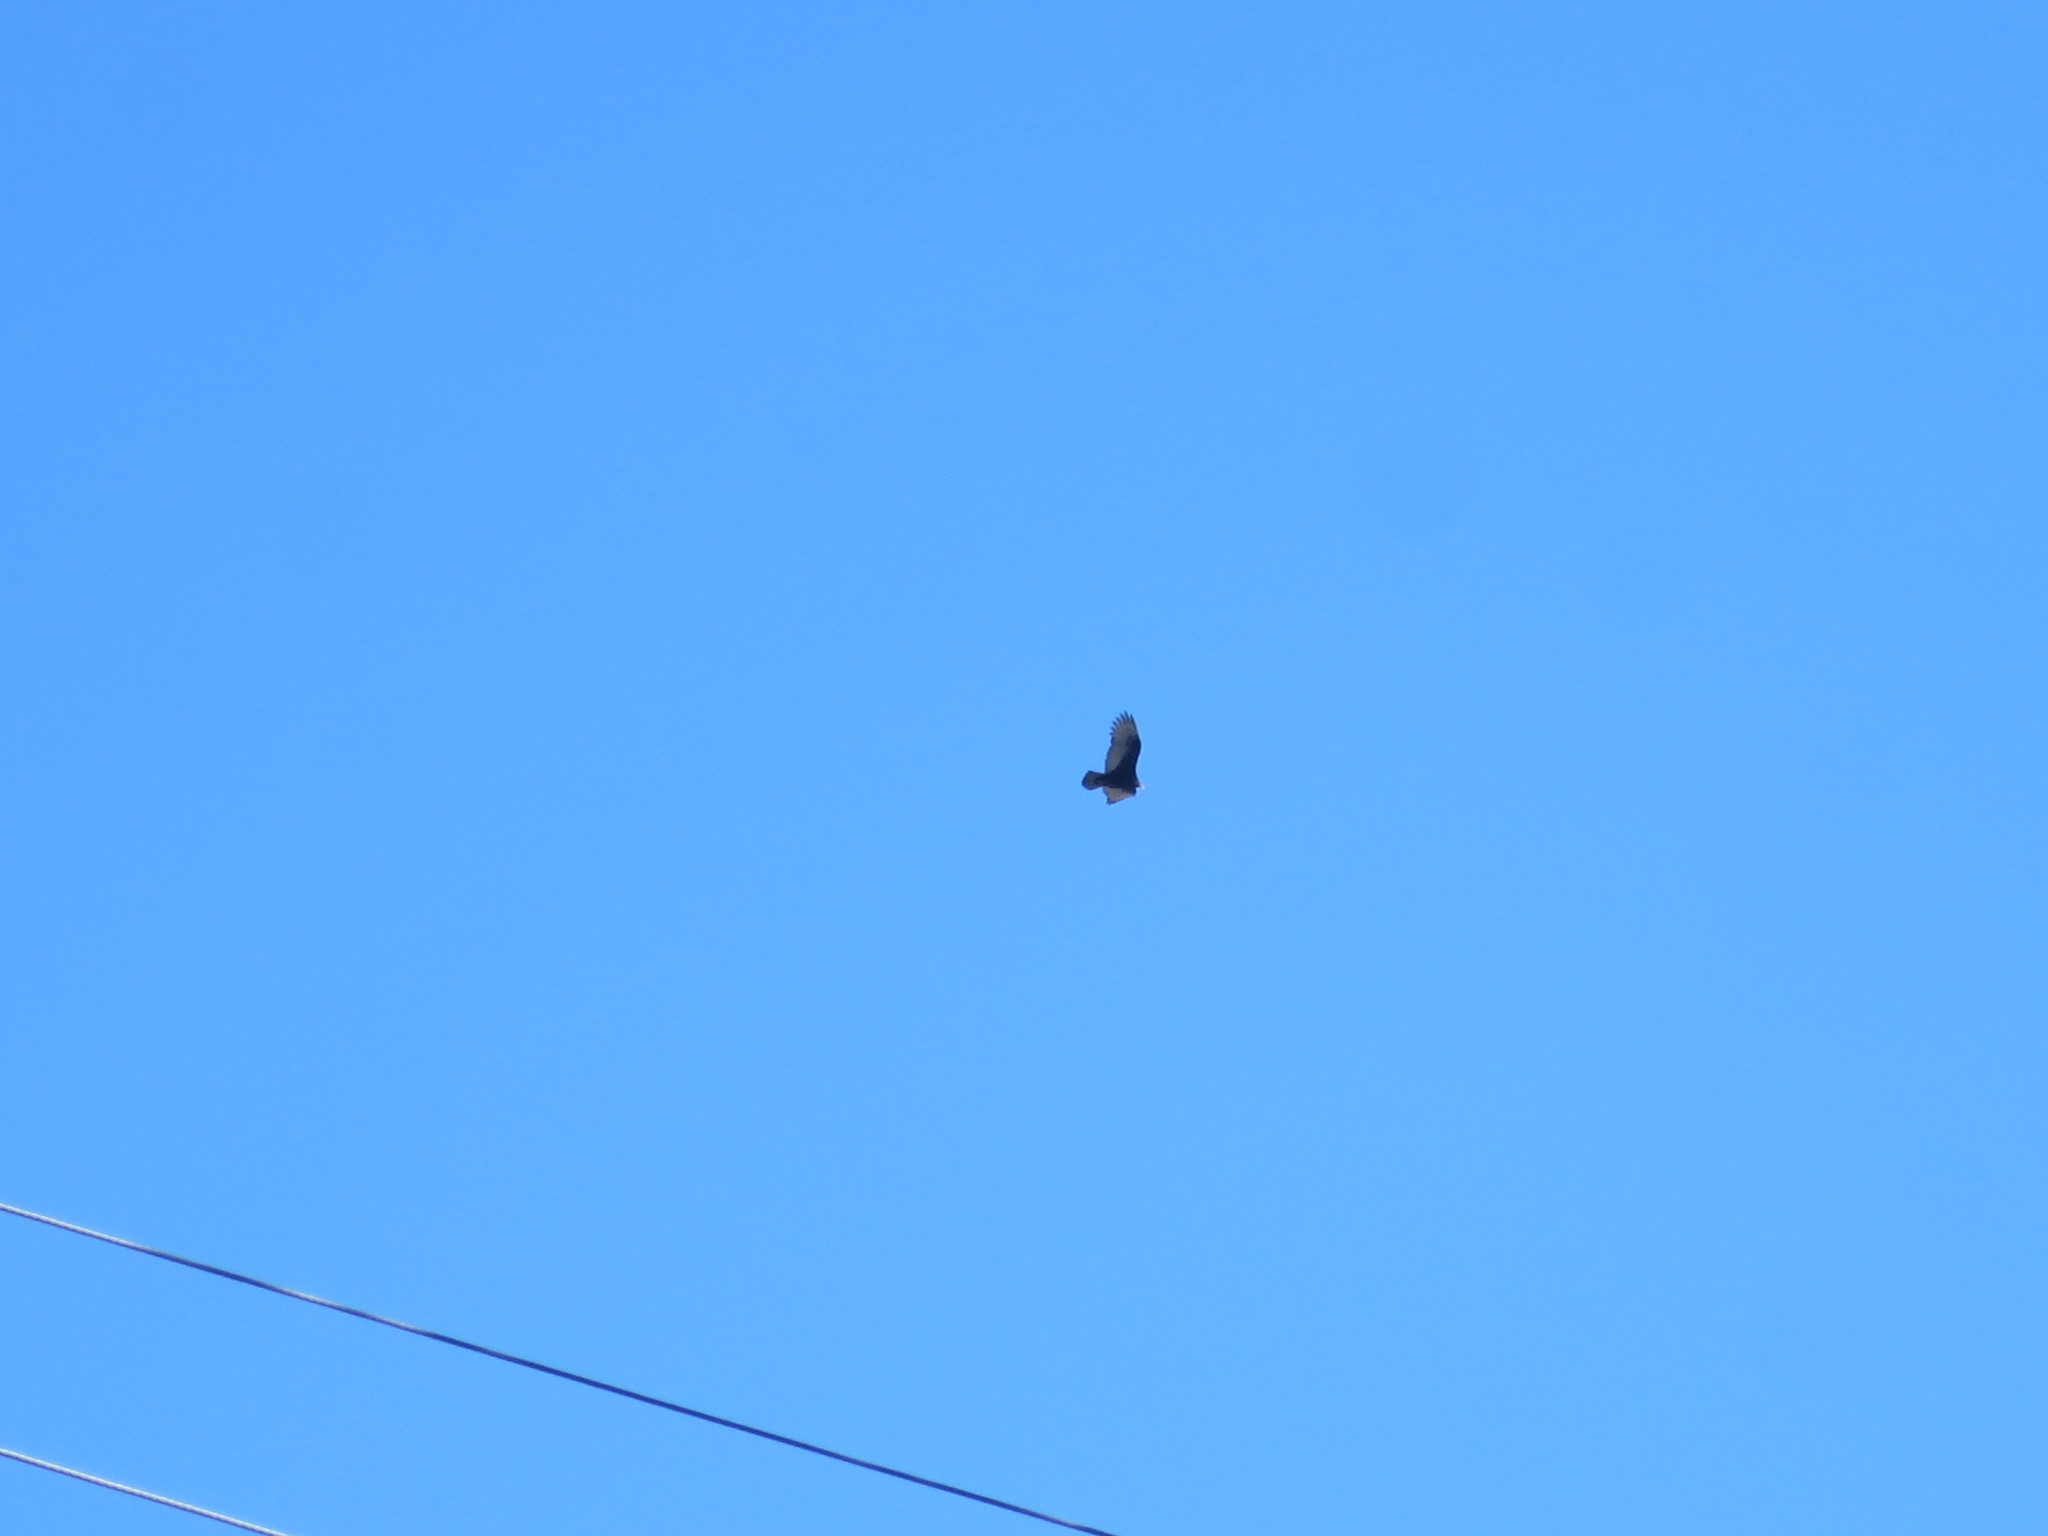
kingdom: Animalia
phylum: Chordata
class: Aves
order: Accipitriformes
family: Cathartidae
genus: Cathartes
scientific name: Cathartes aura
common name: Turkey vulture
